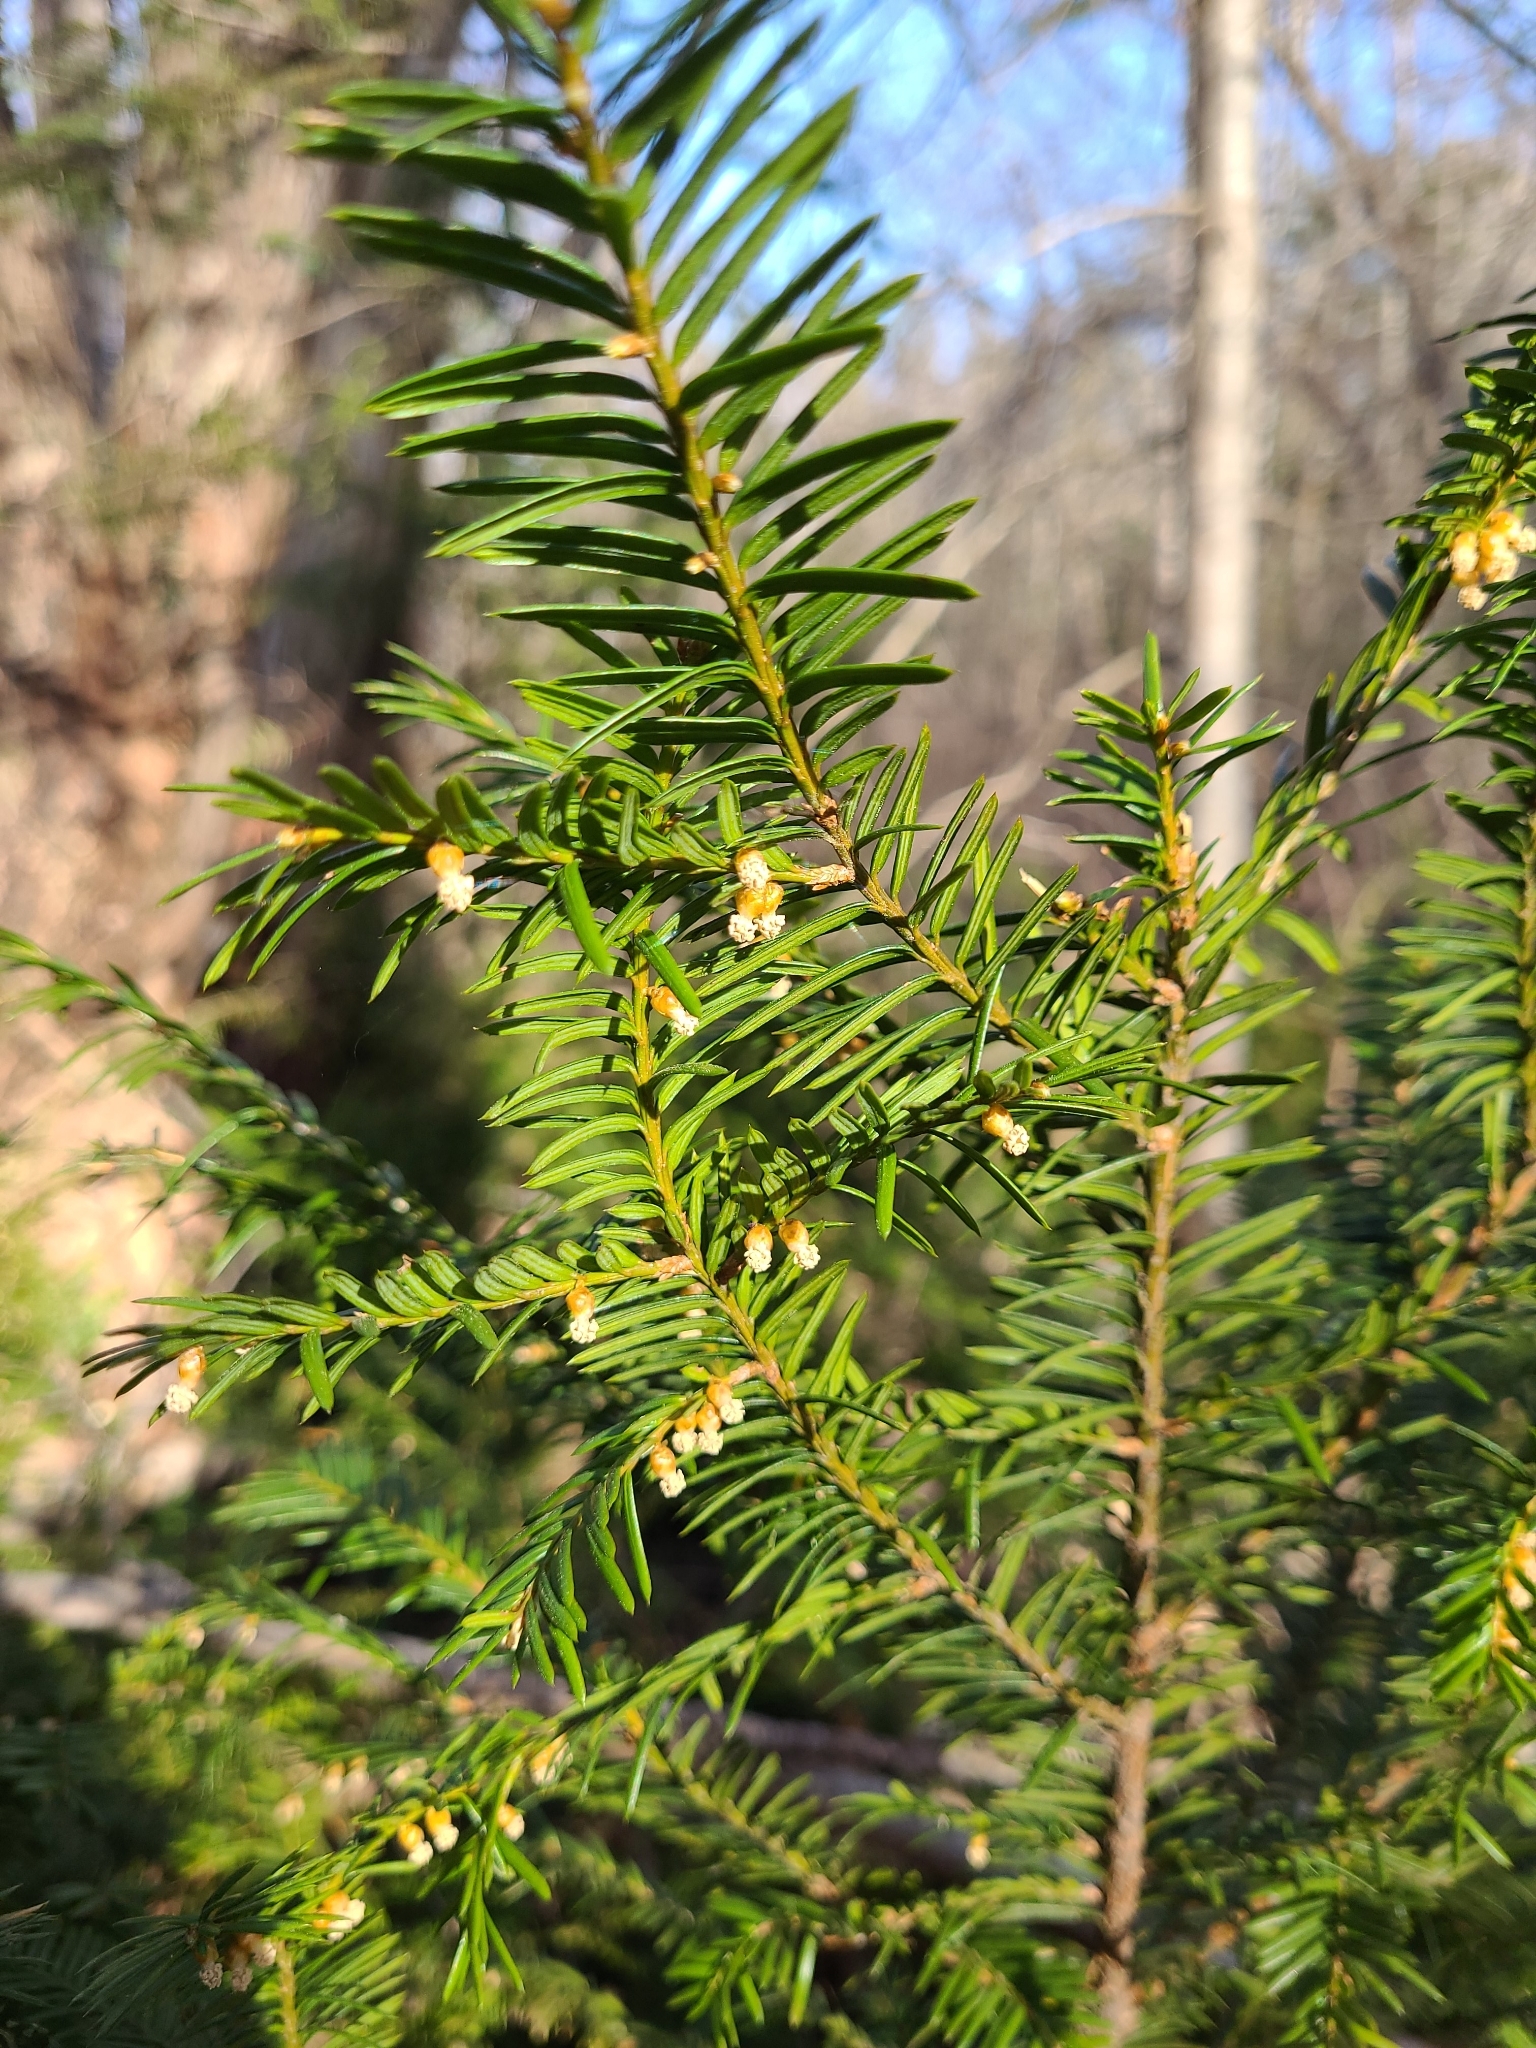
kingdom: Plantae
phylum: Tracheophyta
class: Pinopsida
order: Pinales
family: Taxaceae
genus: Taxus
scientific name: Taxus canadensis
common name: American yew
